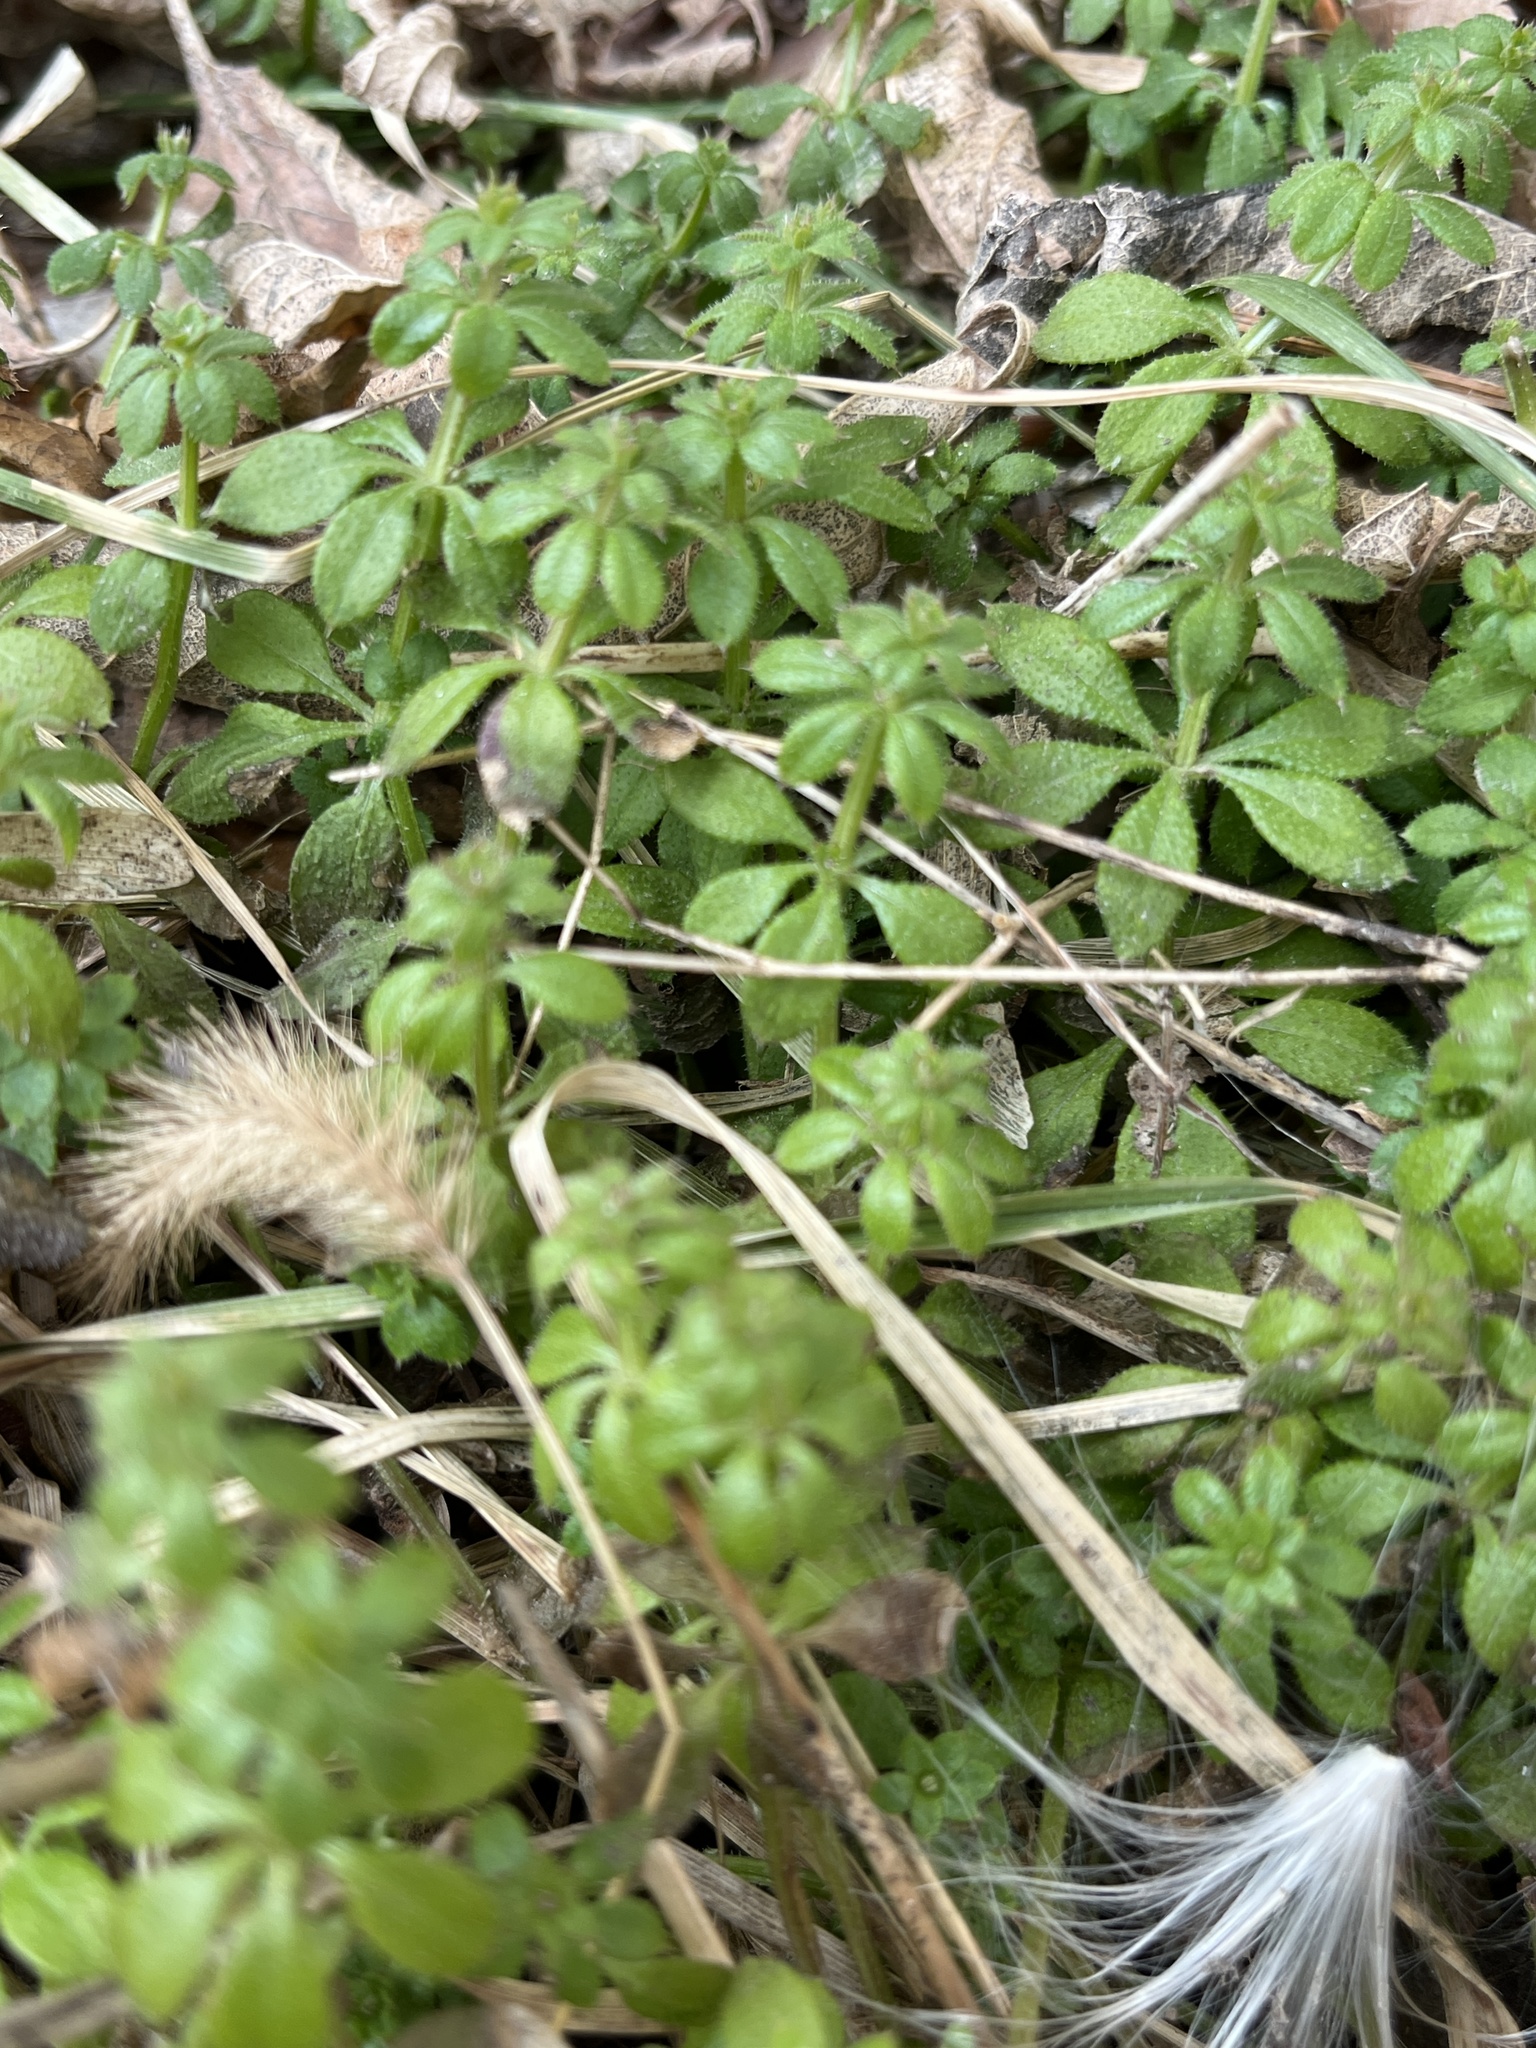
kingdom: Plantae
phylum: Tracheophyta
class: Magnoliopsida
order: Gentianales
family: Rubiaceae
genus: Galium
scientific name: Galium aparine
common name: Cleavers
